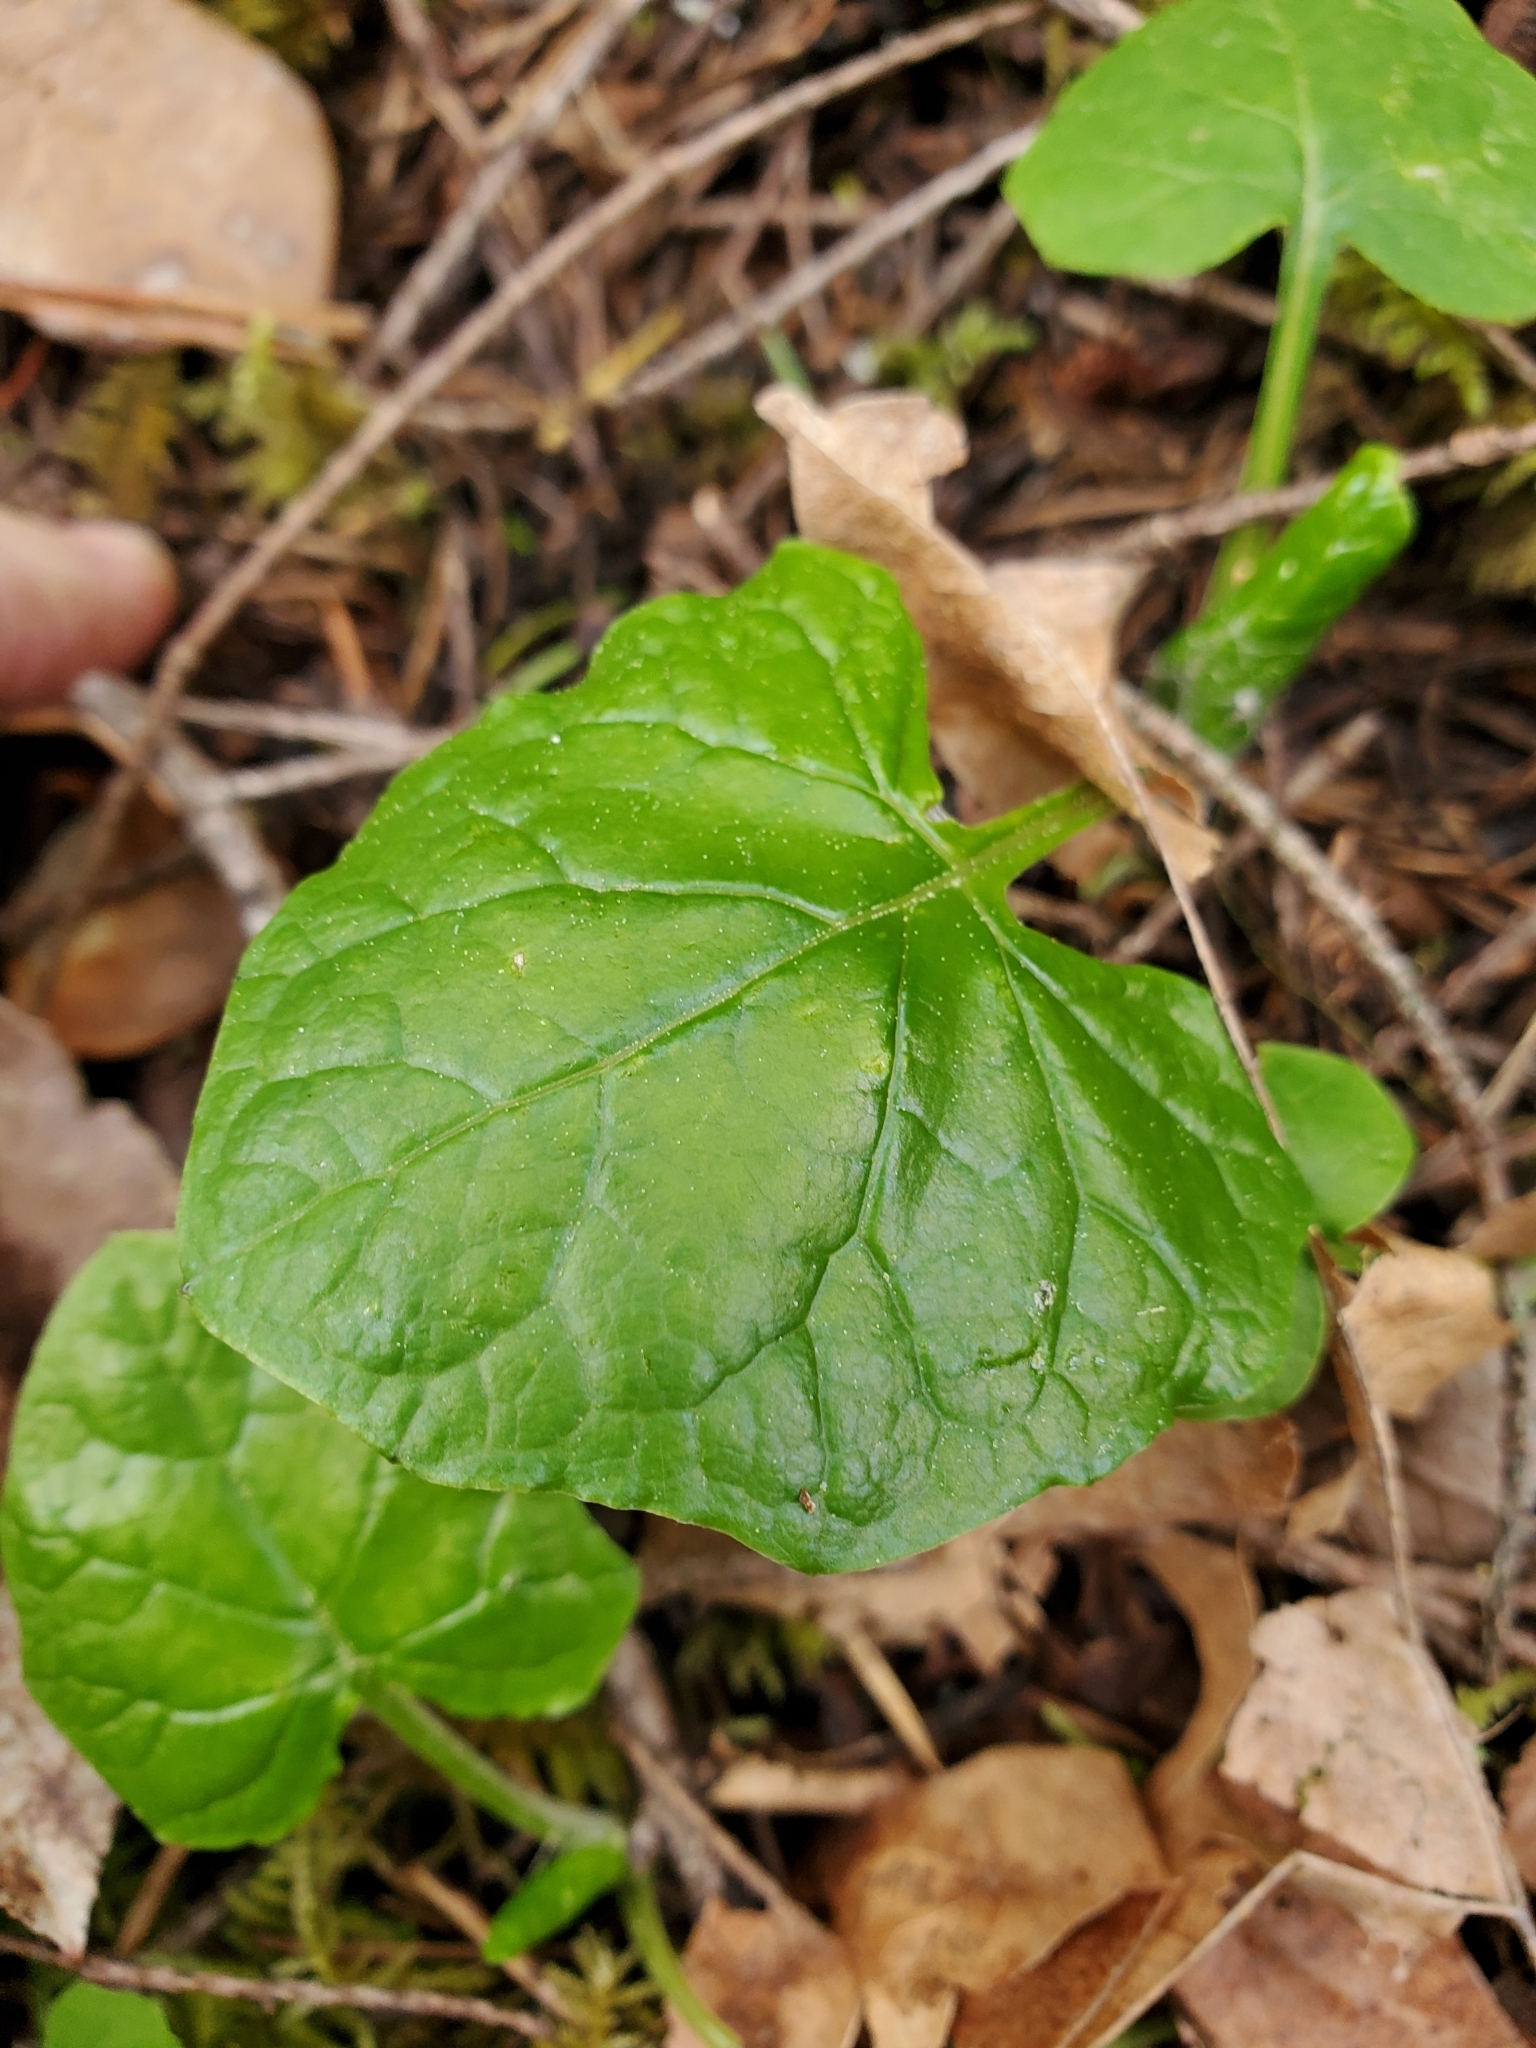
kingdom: Plantae
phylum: Tracheophyta
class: Magnoliopsida
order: Asterales
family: Asteraceae
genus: Adenocaulon
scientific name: Adenocaulon bicolor
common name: Trailplant
